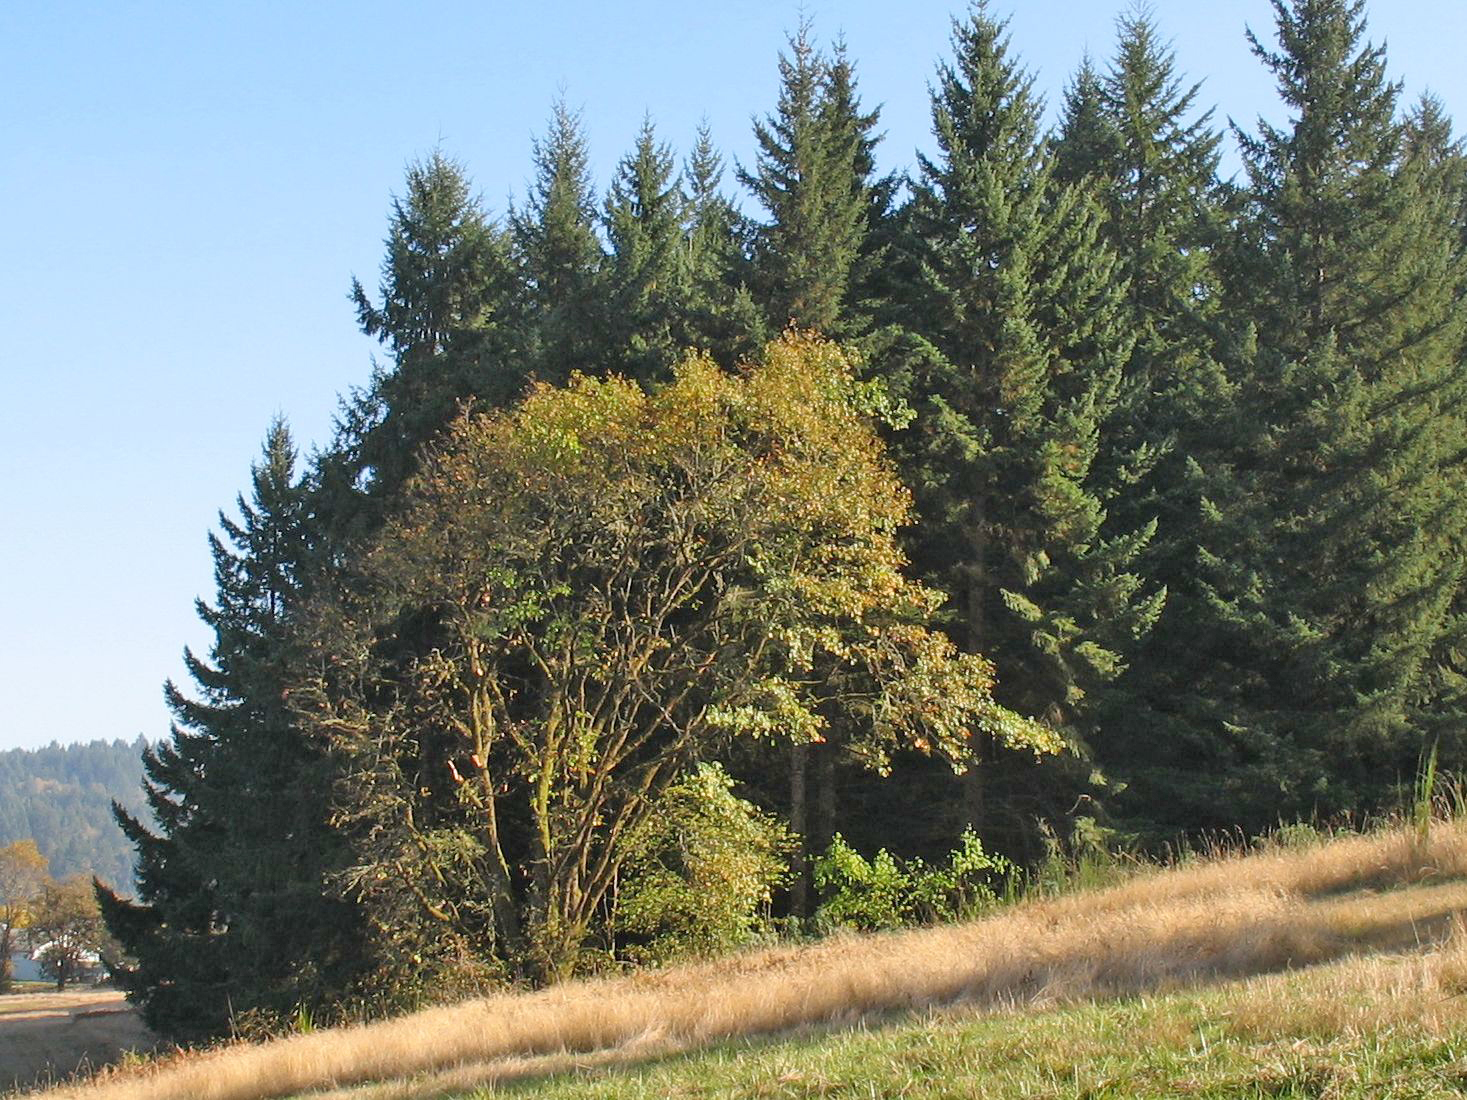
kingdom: Plantae
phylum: Tracheophyta
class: Magnoliopsida
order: Fagales
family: Fagaceae
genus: Quercus
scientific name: Quercus kelloggii
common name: California black oak
